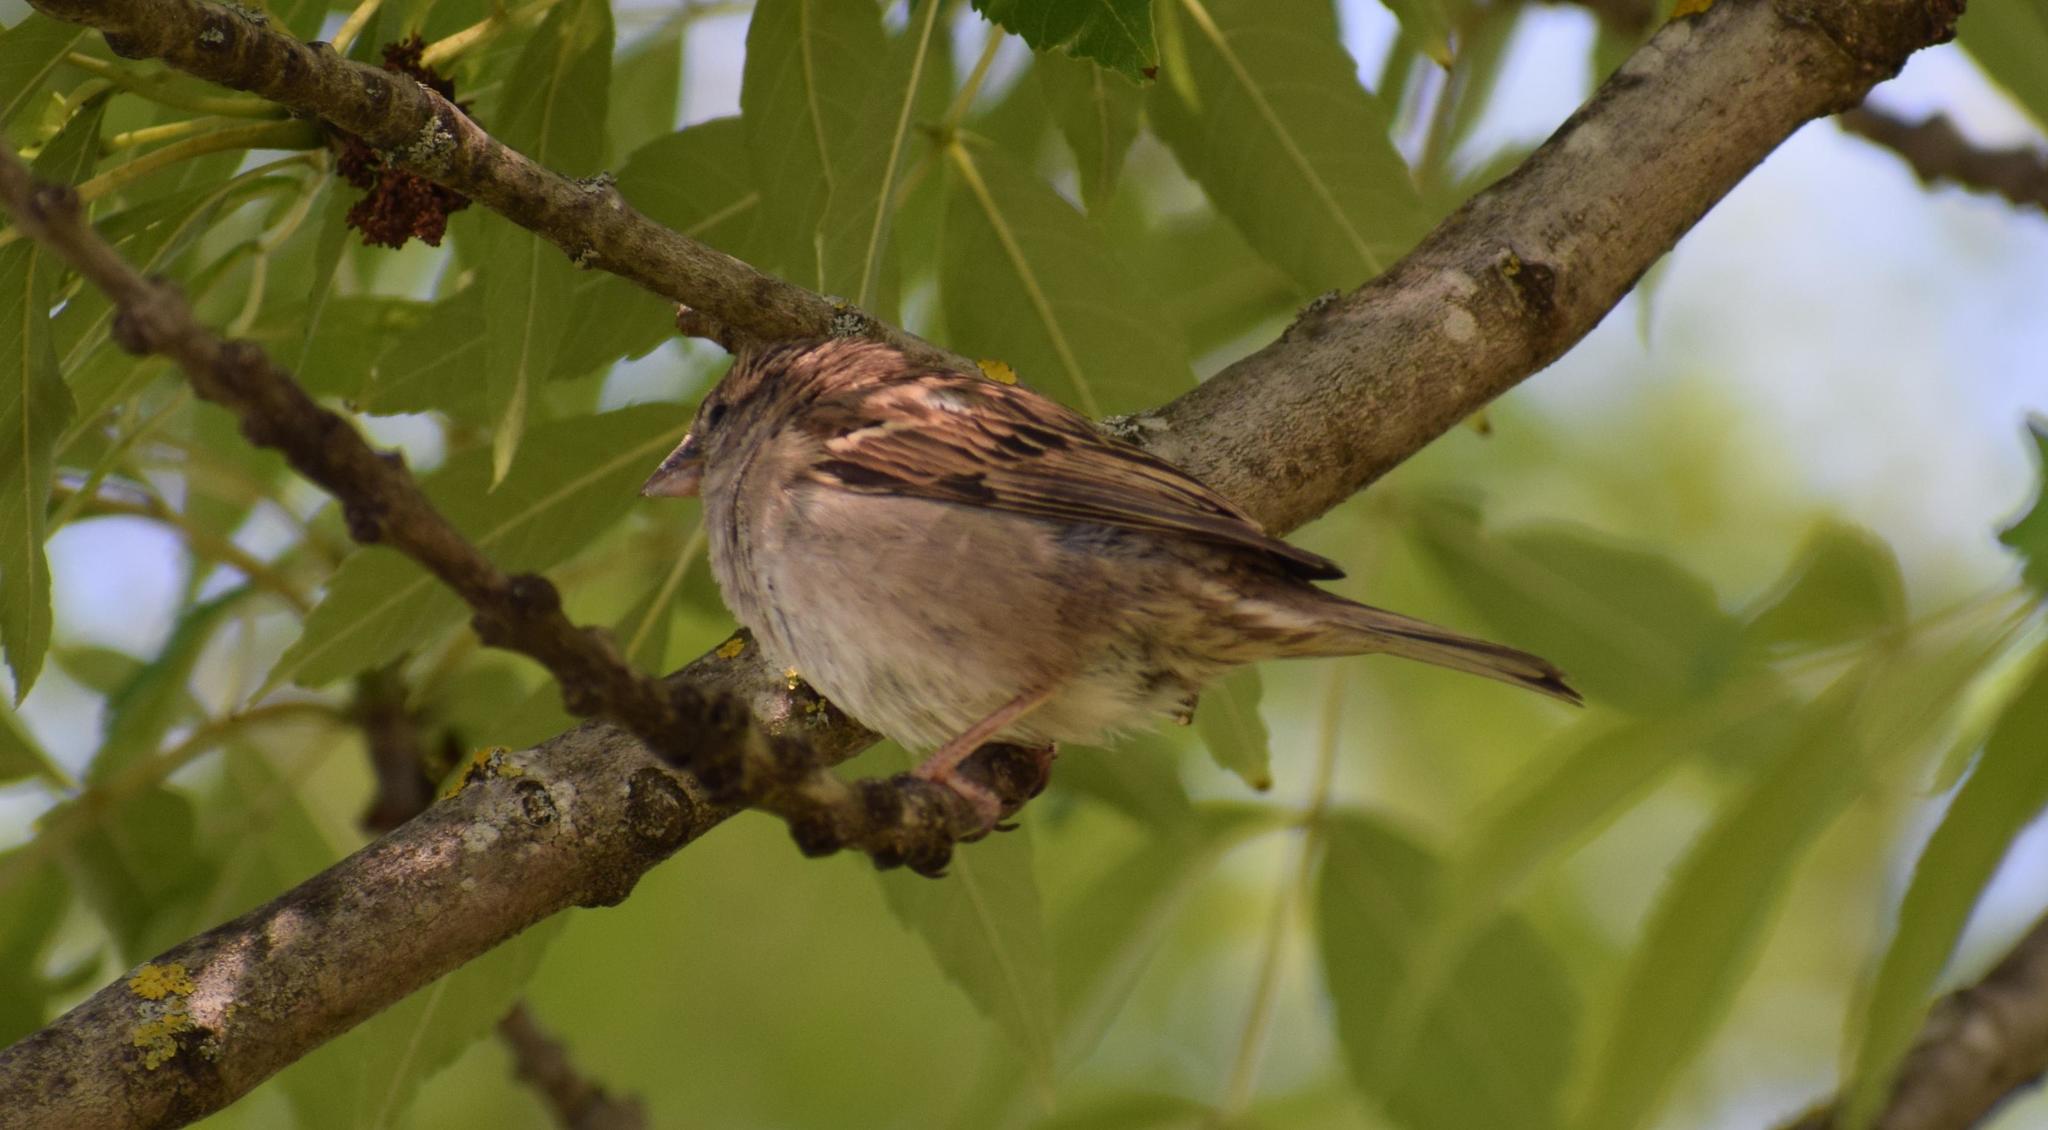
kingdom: Animalia
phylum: Chordata
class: Aves
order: Passeriformes
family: Passeridae
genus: Passer
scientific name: Passer domesticus
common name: House sparrow
